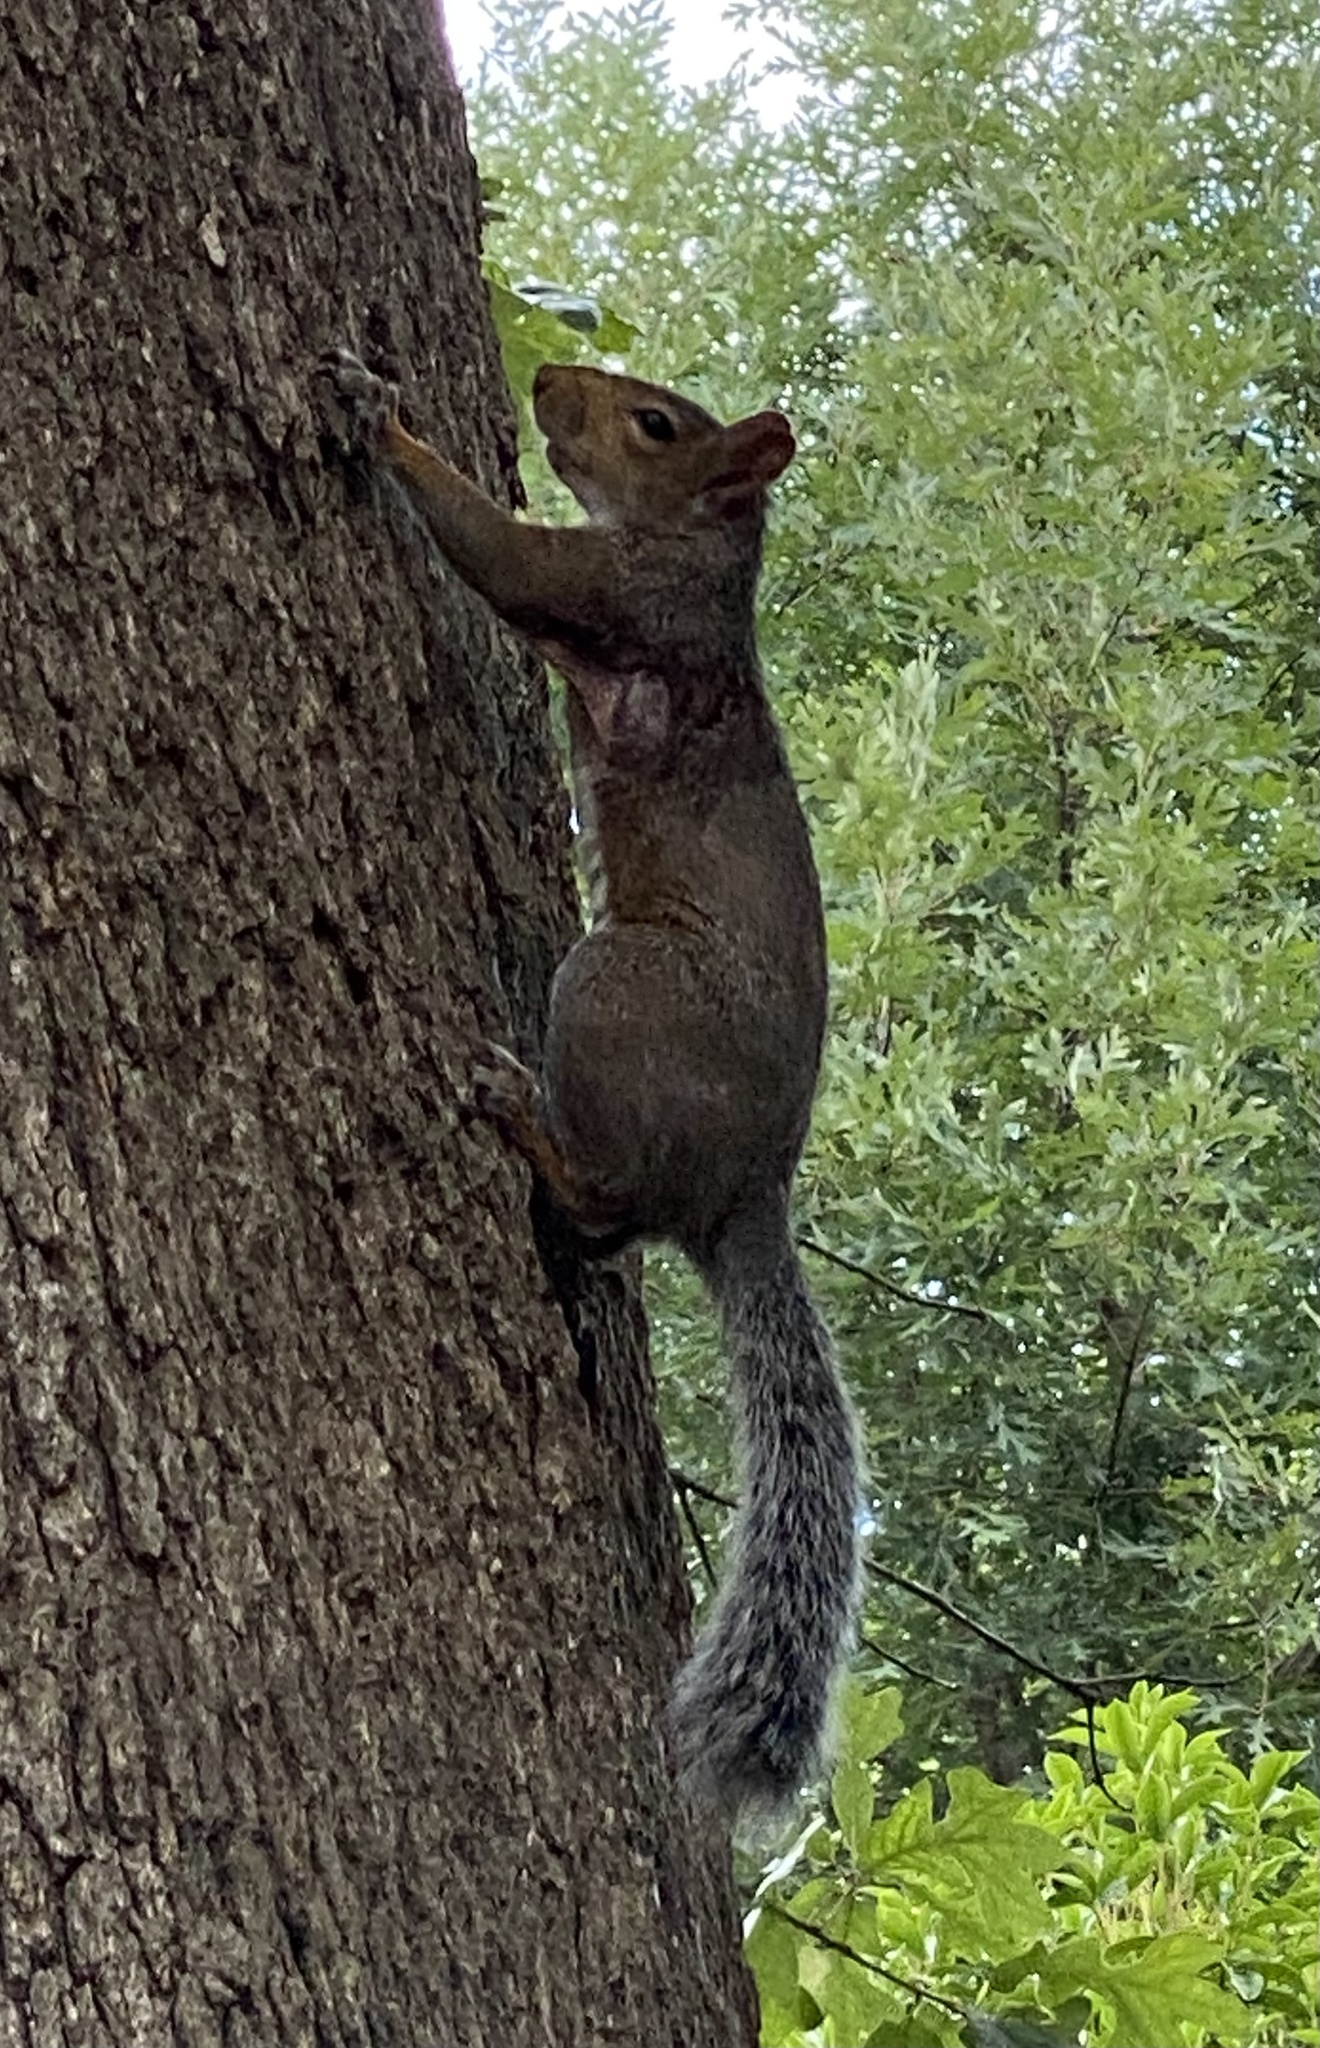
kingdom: Animalia
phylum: Chordata
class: Mammalia
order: Rodentia
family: Sciuridae
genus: Sciurus
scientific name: Sciurus carolinensis
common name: Eastern gray squirrel
